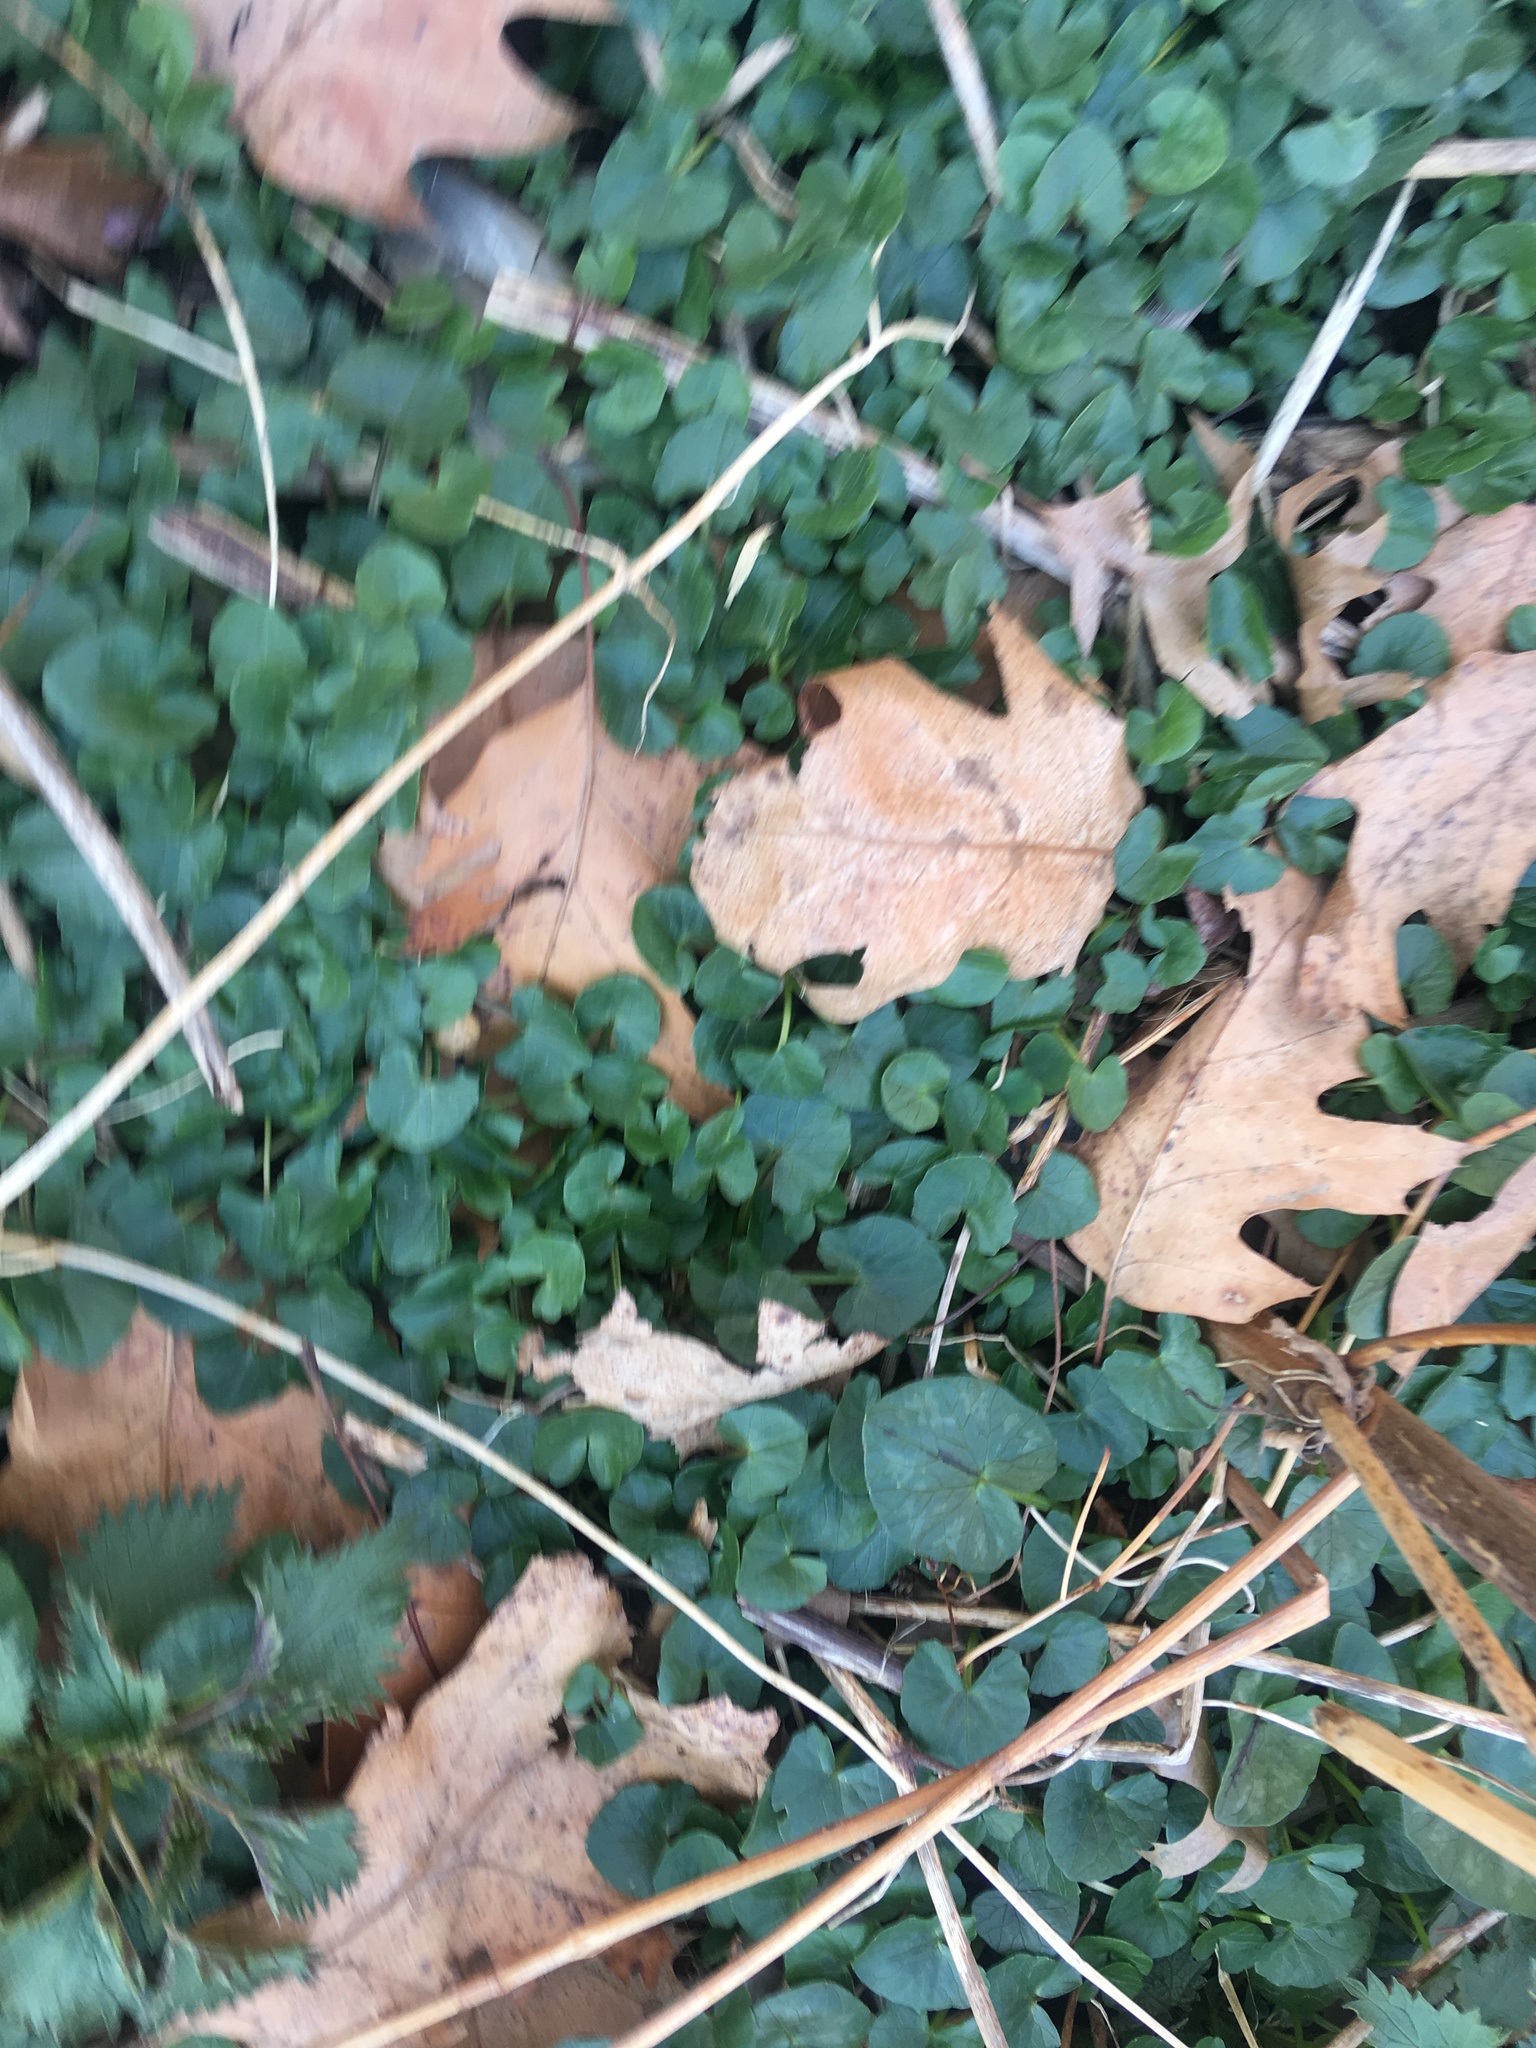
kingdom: Plantae
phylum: Tracheophyta
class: Magnoliopsida
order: Ranunculales
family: Ranunculaceae
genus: Ficaria
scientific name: Ficaria verna
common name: Lesser celandine
